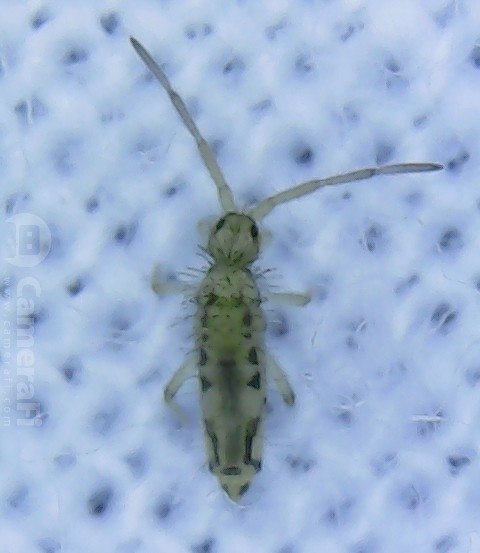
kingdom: Animalia
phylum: Arthropoda
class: Collembola
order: Entomobryomorpha
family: Entomobryidae
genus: Entomobrya
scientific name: Entomobrya katzi
